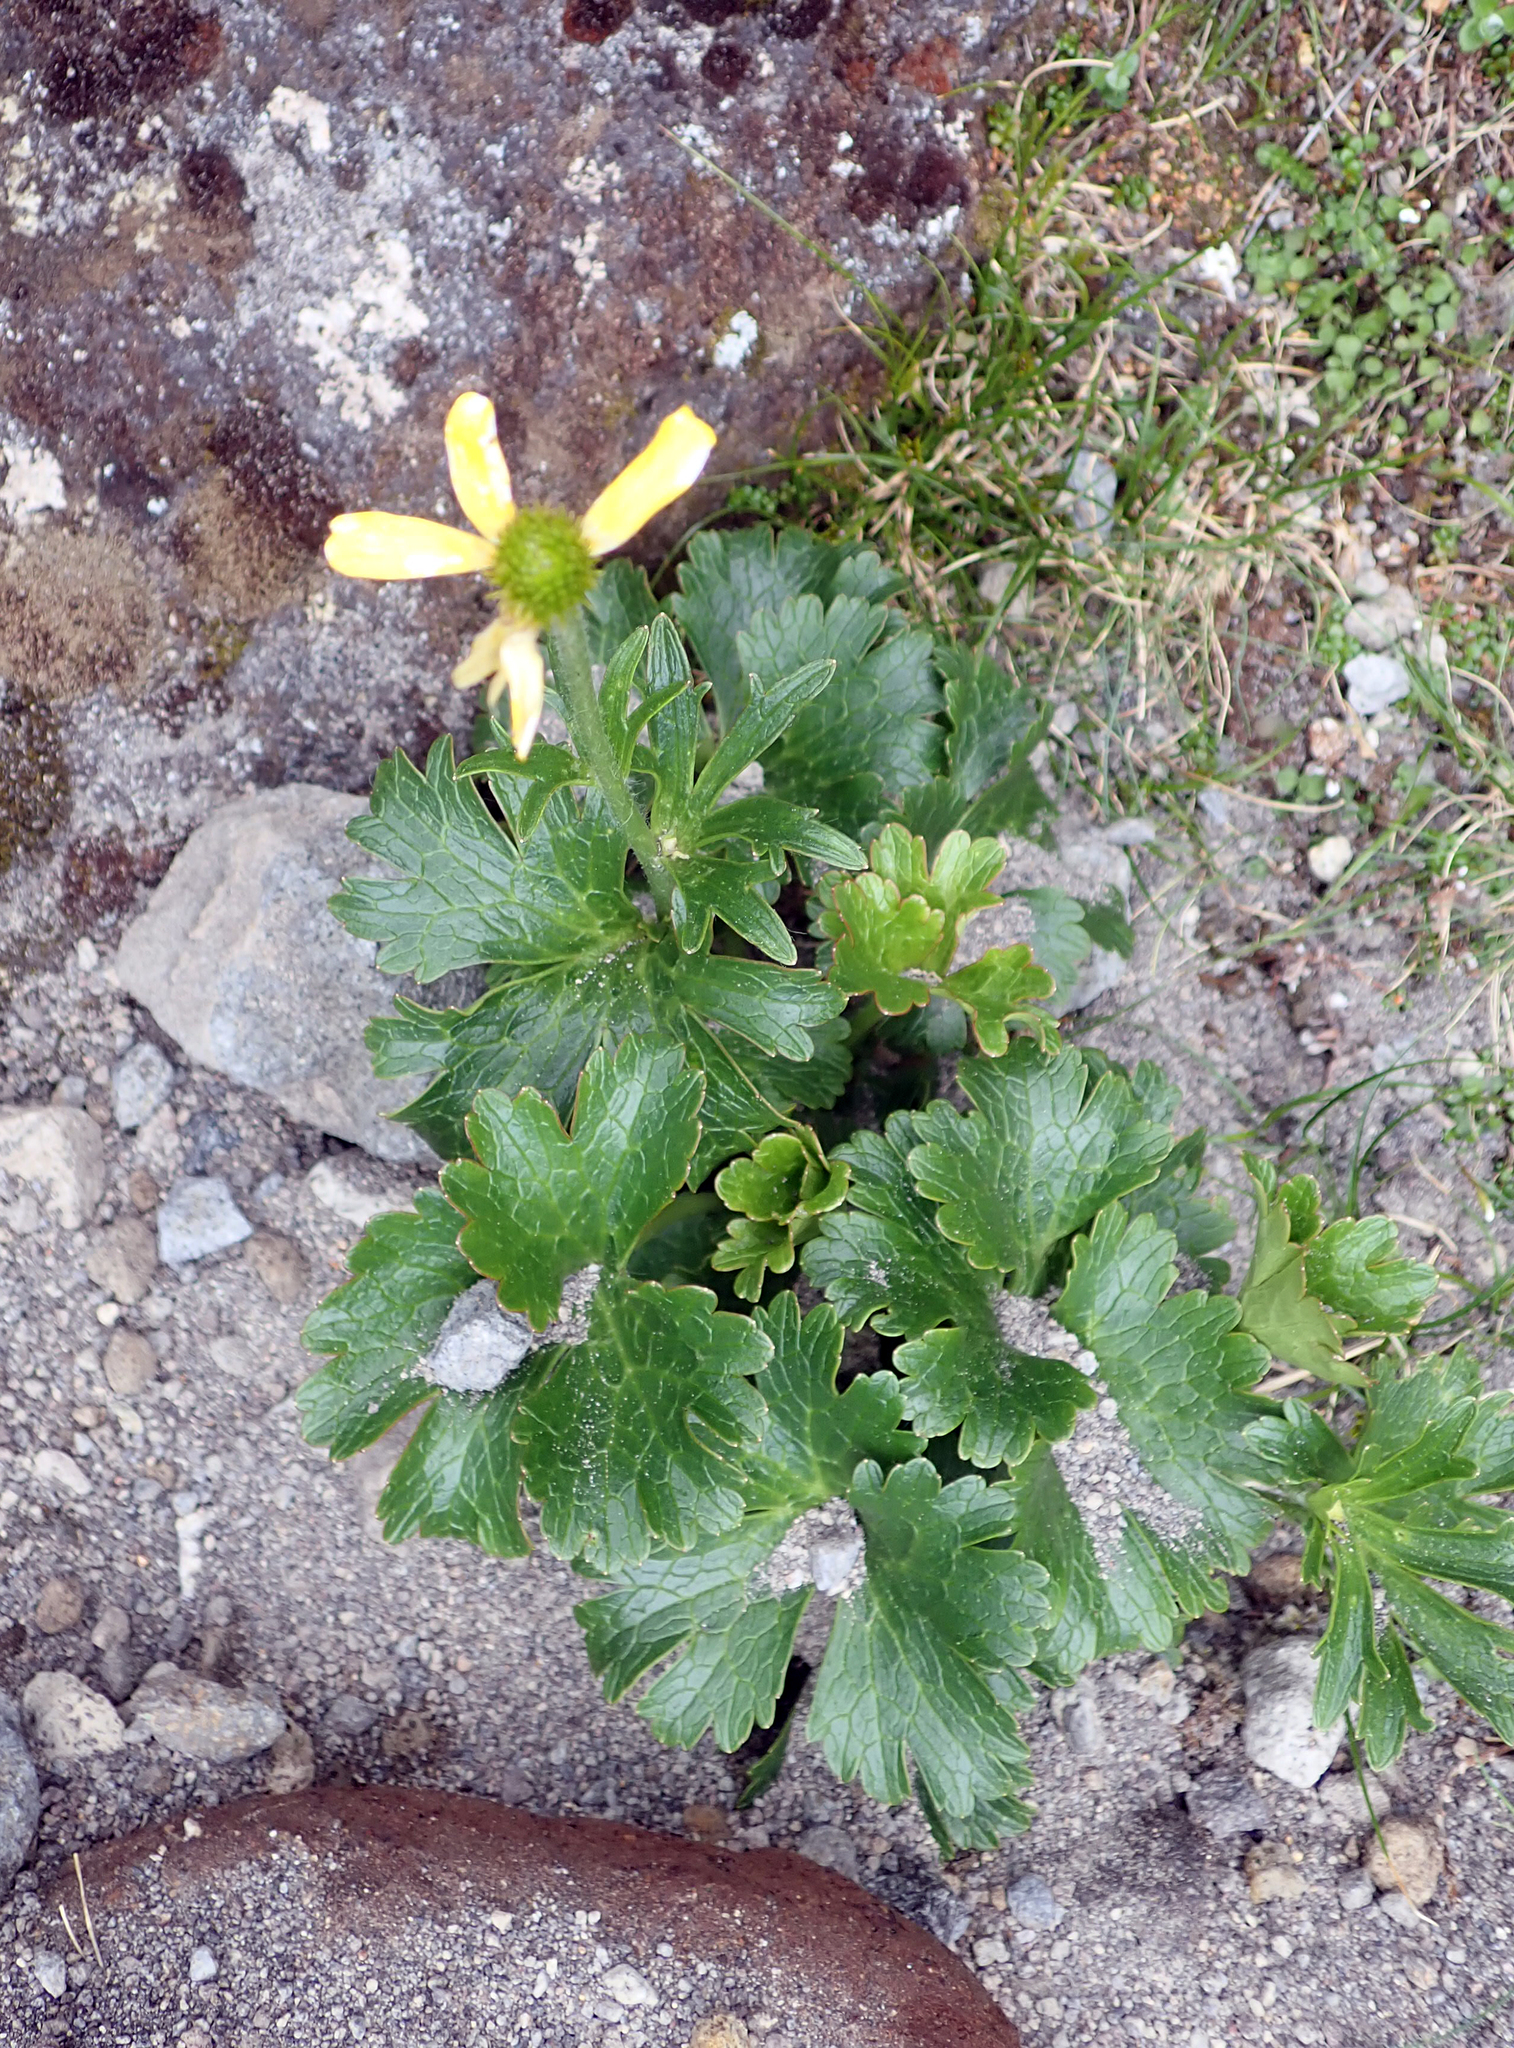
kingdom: Plantae
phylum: Tracheophyta
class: Magnoliopsida
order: Ranunculales
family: Ranunculaceae
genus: Ranunculus
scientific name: Ranunculus nivicola
